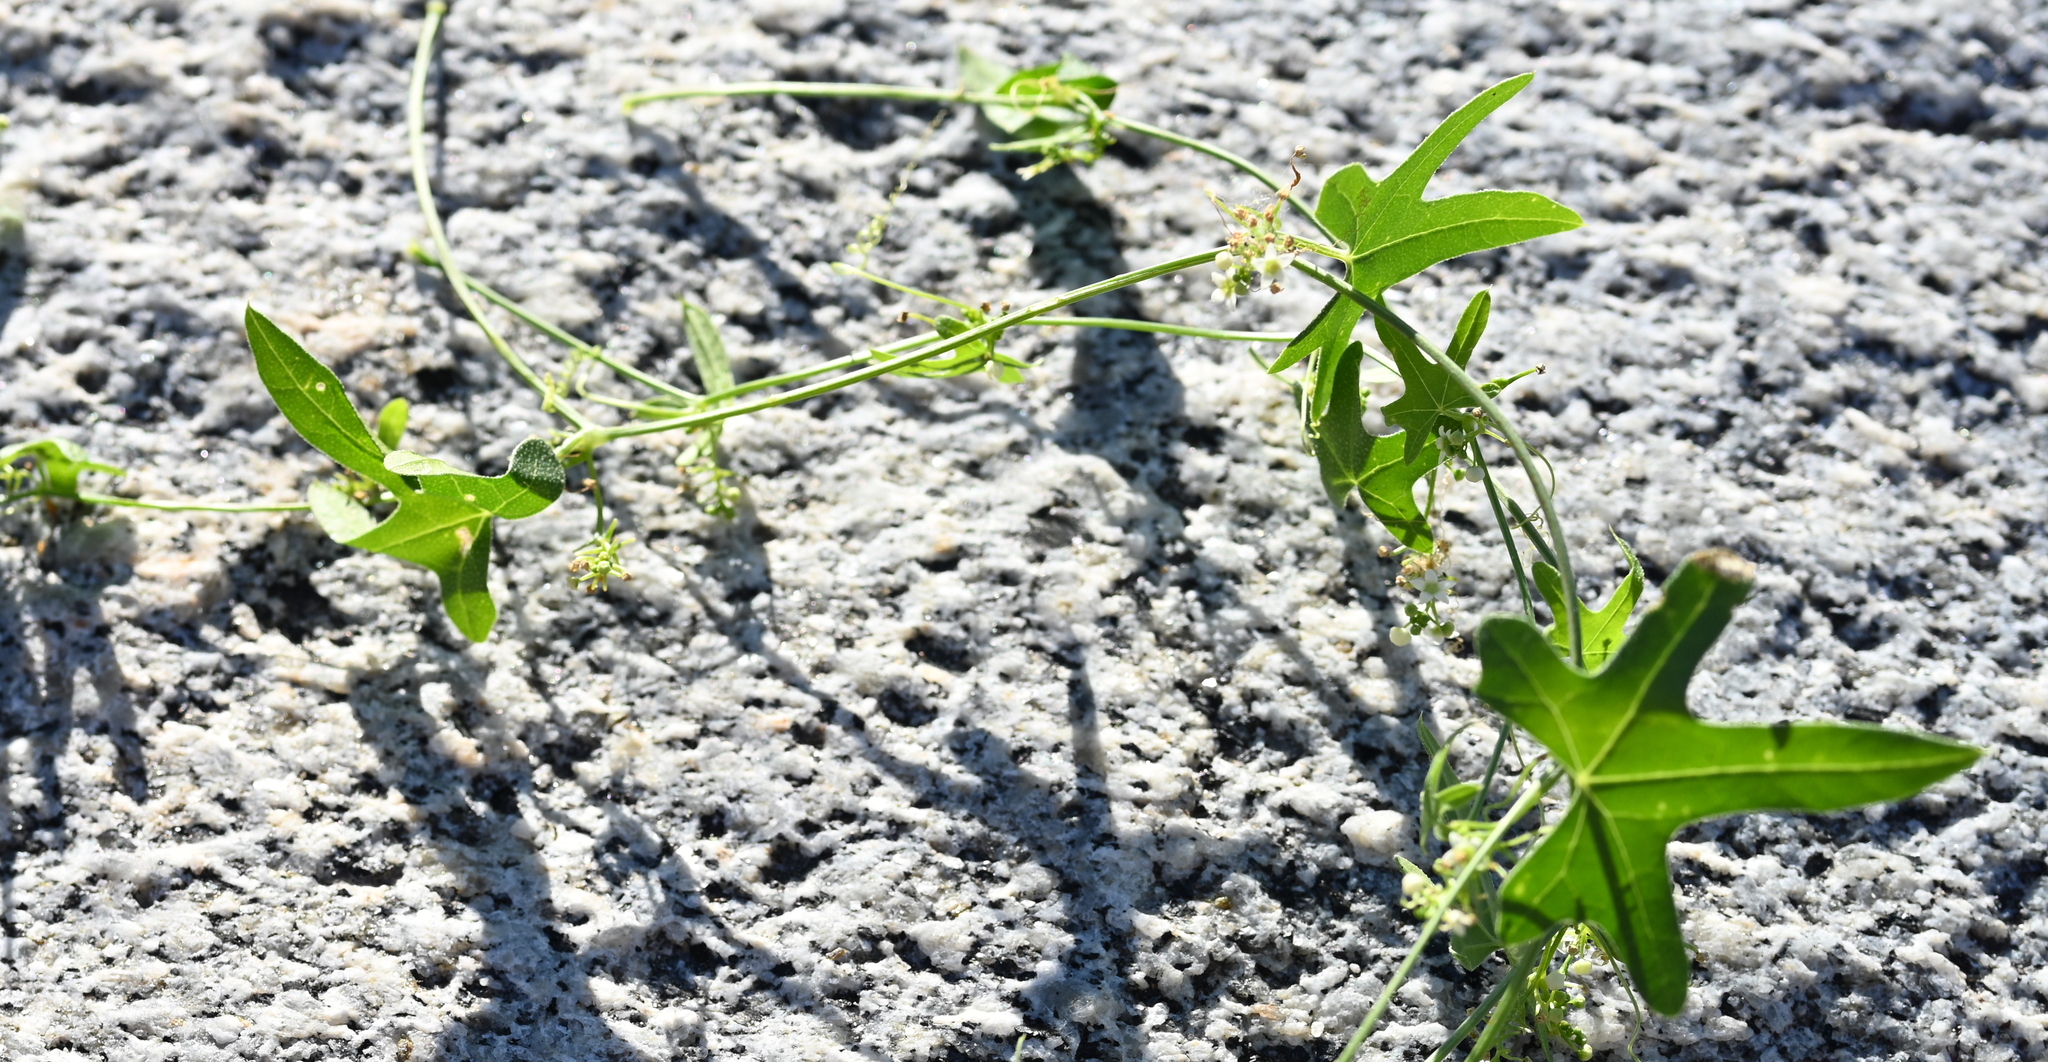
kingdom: Plantae
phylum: Tracheophyta
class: Magnoliopsida
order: Cucurbitales
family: Cucurbitaceae
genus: Echinopepon
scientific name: Echinopepon bigelovii
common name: Desert starvine
